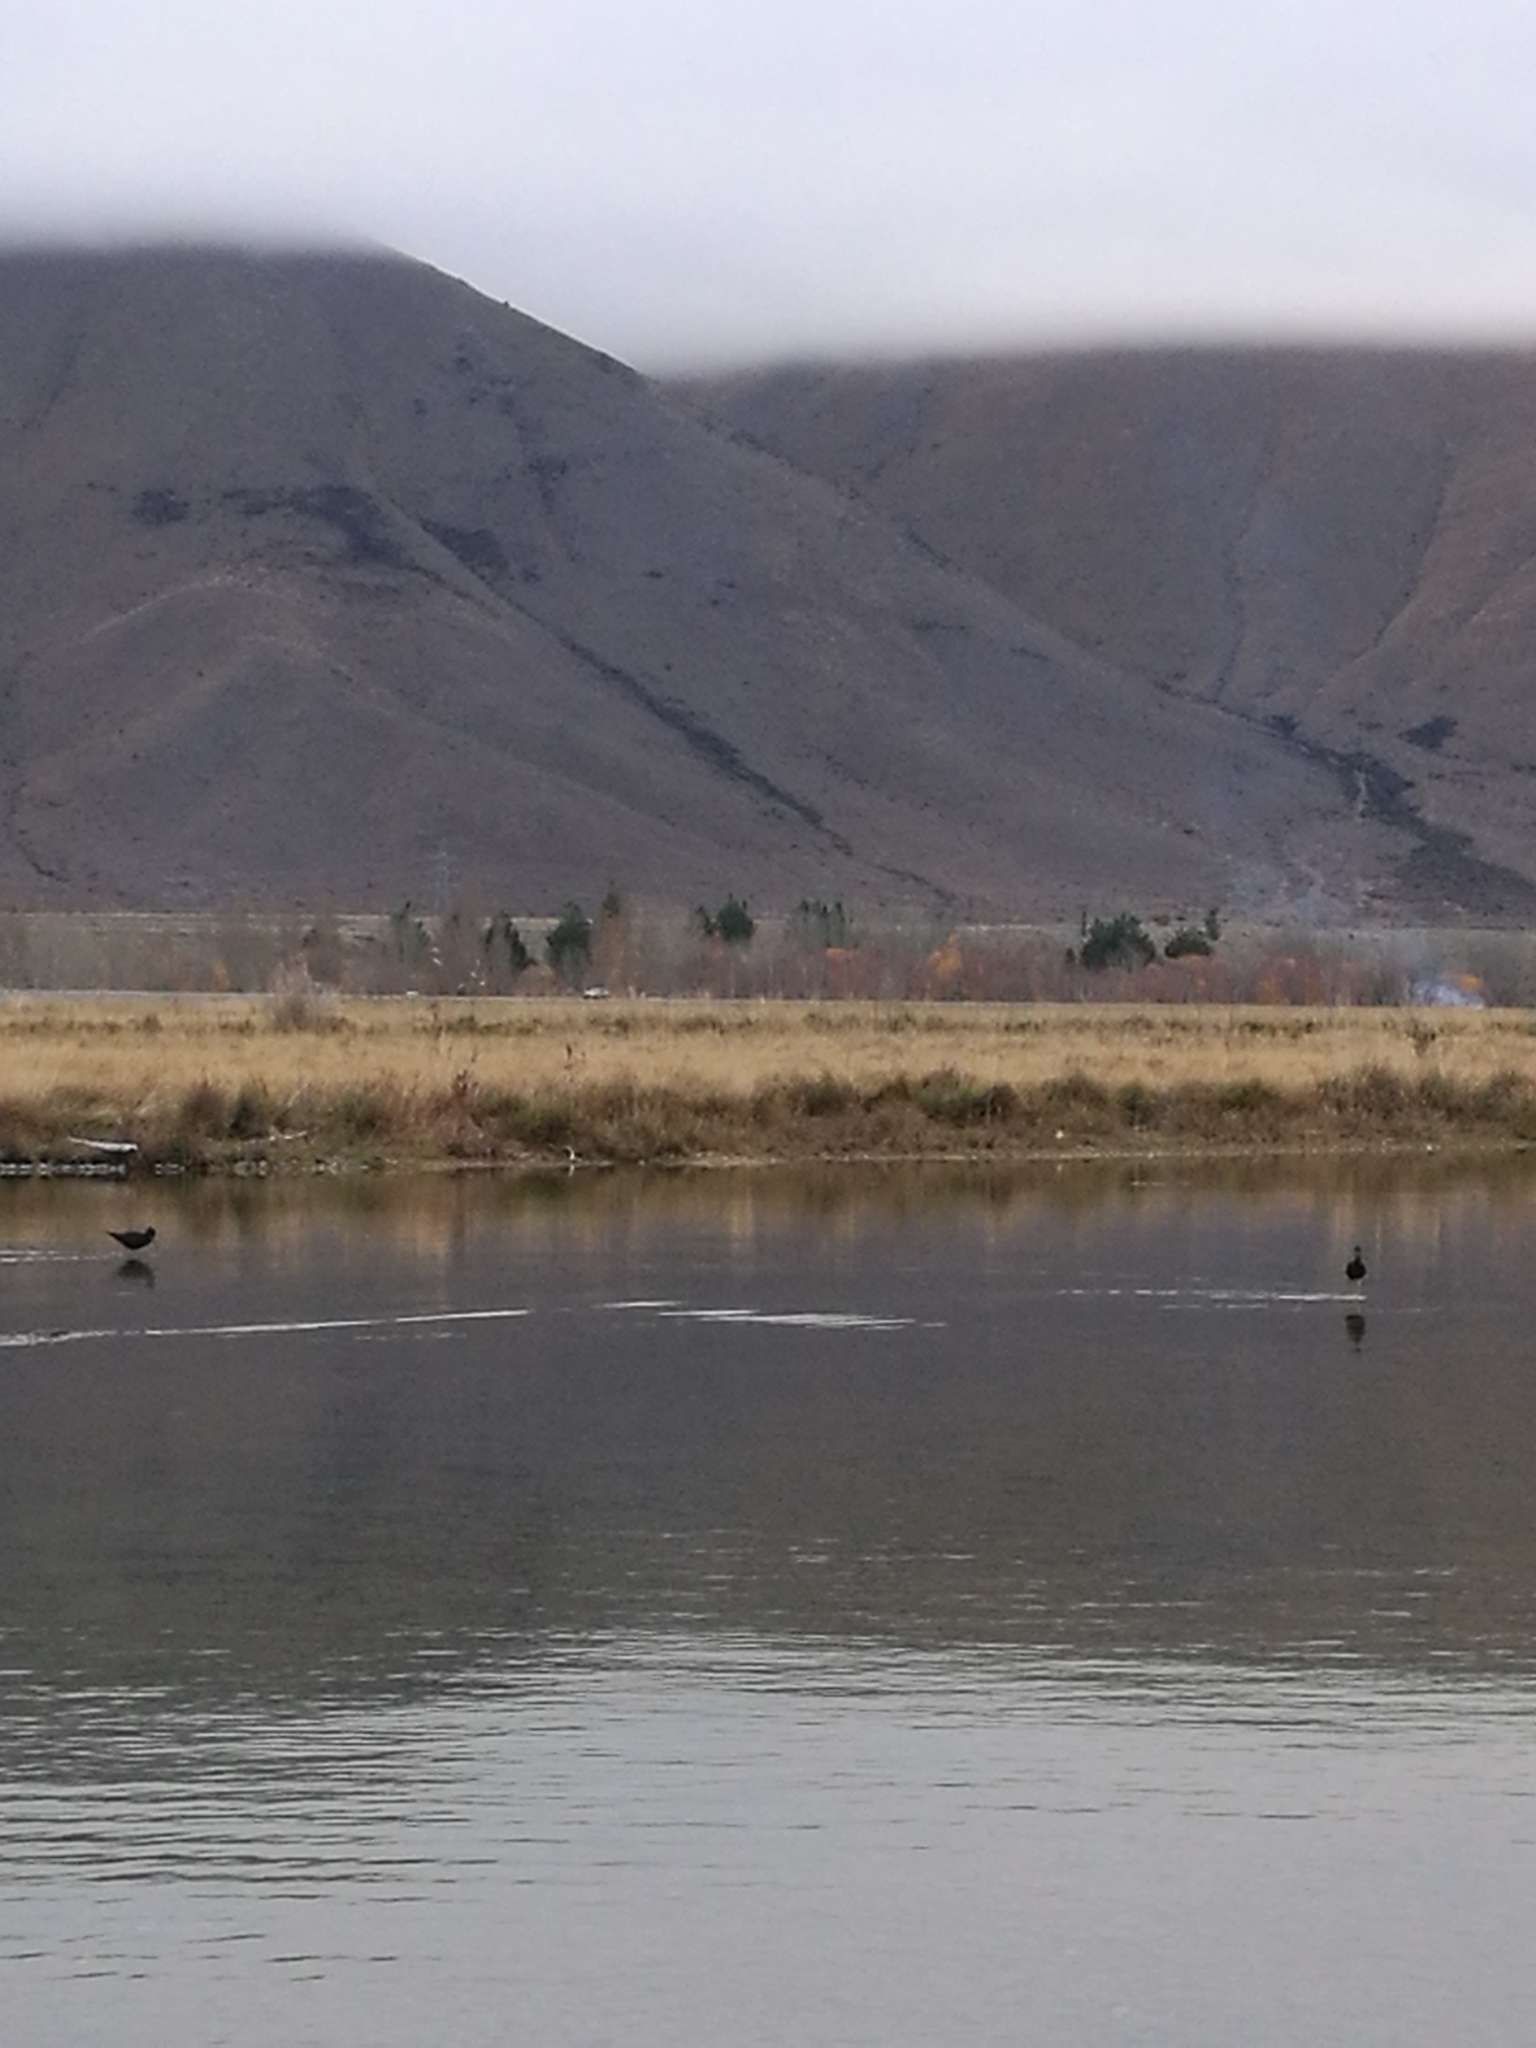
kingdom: Animalia
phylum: Chordata
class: Aves
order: Charadriiformes
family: Recurvirostridae
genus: Himantopus
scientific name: Himantopus novaezelandiae
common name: Black stilt
